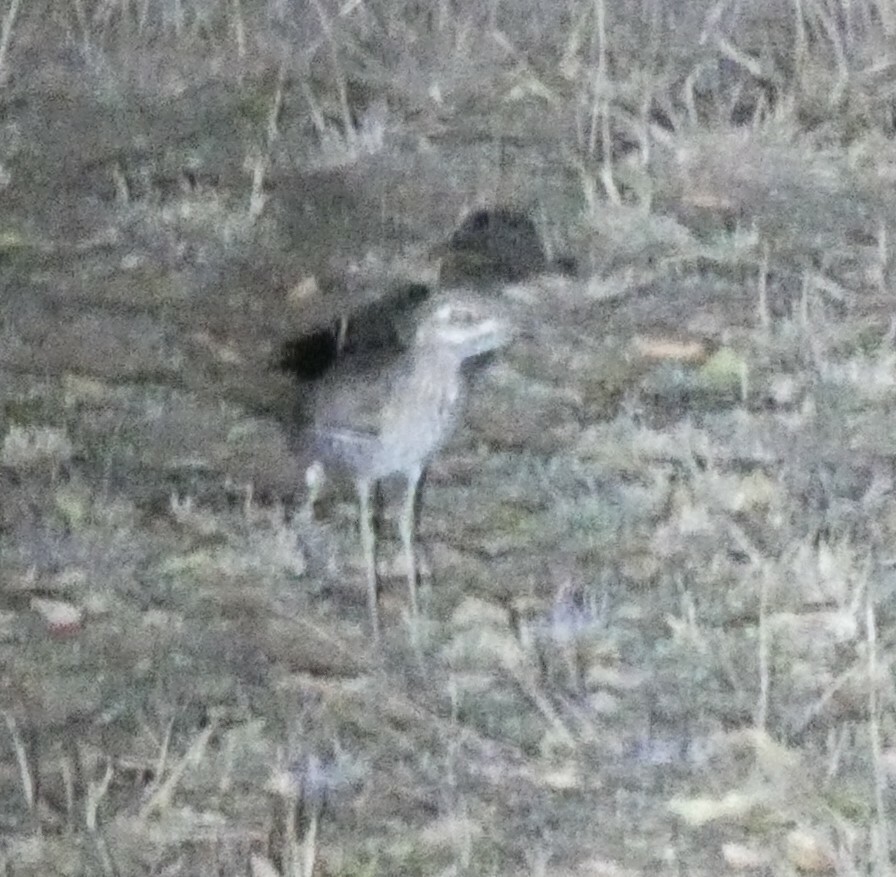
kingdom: Animalia
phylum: Chordata
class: Aves
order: Charadriiformes
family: Burhinidae
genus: Burhinus
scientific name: Burhinus capensis
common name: Spotted thick-knee
